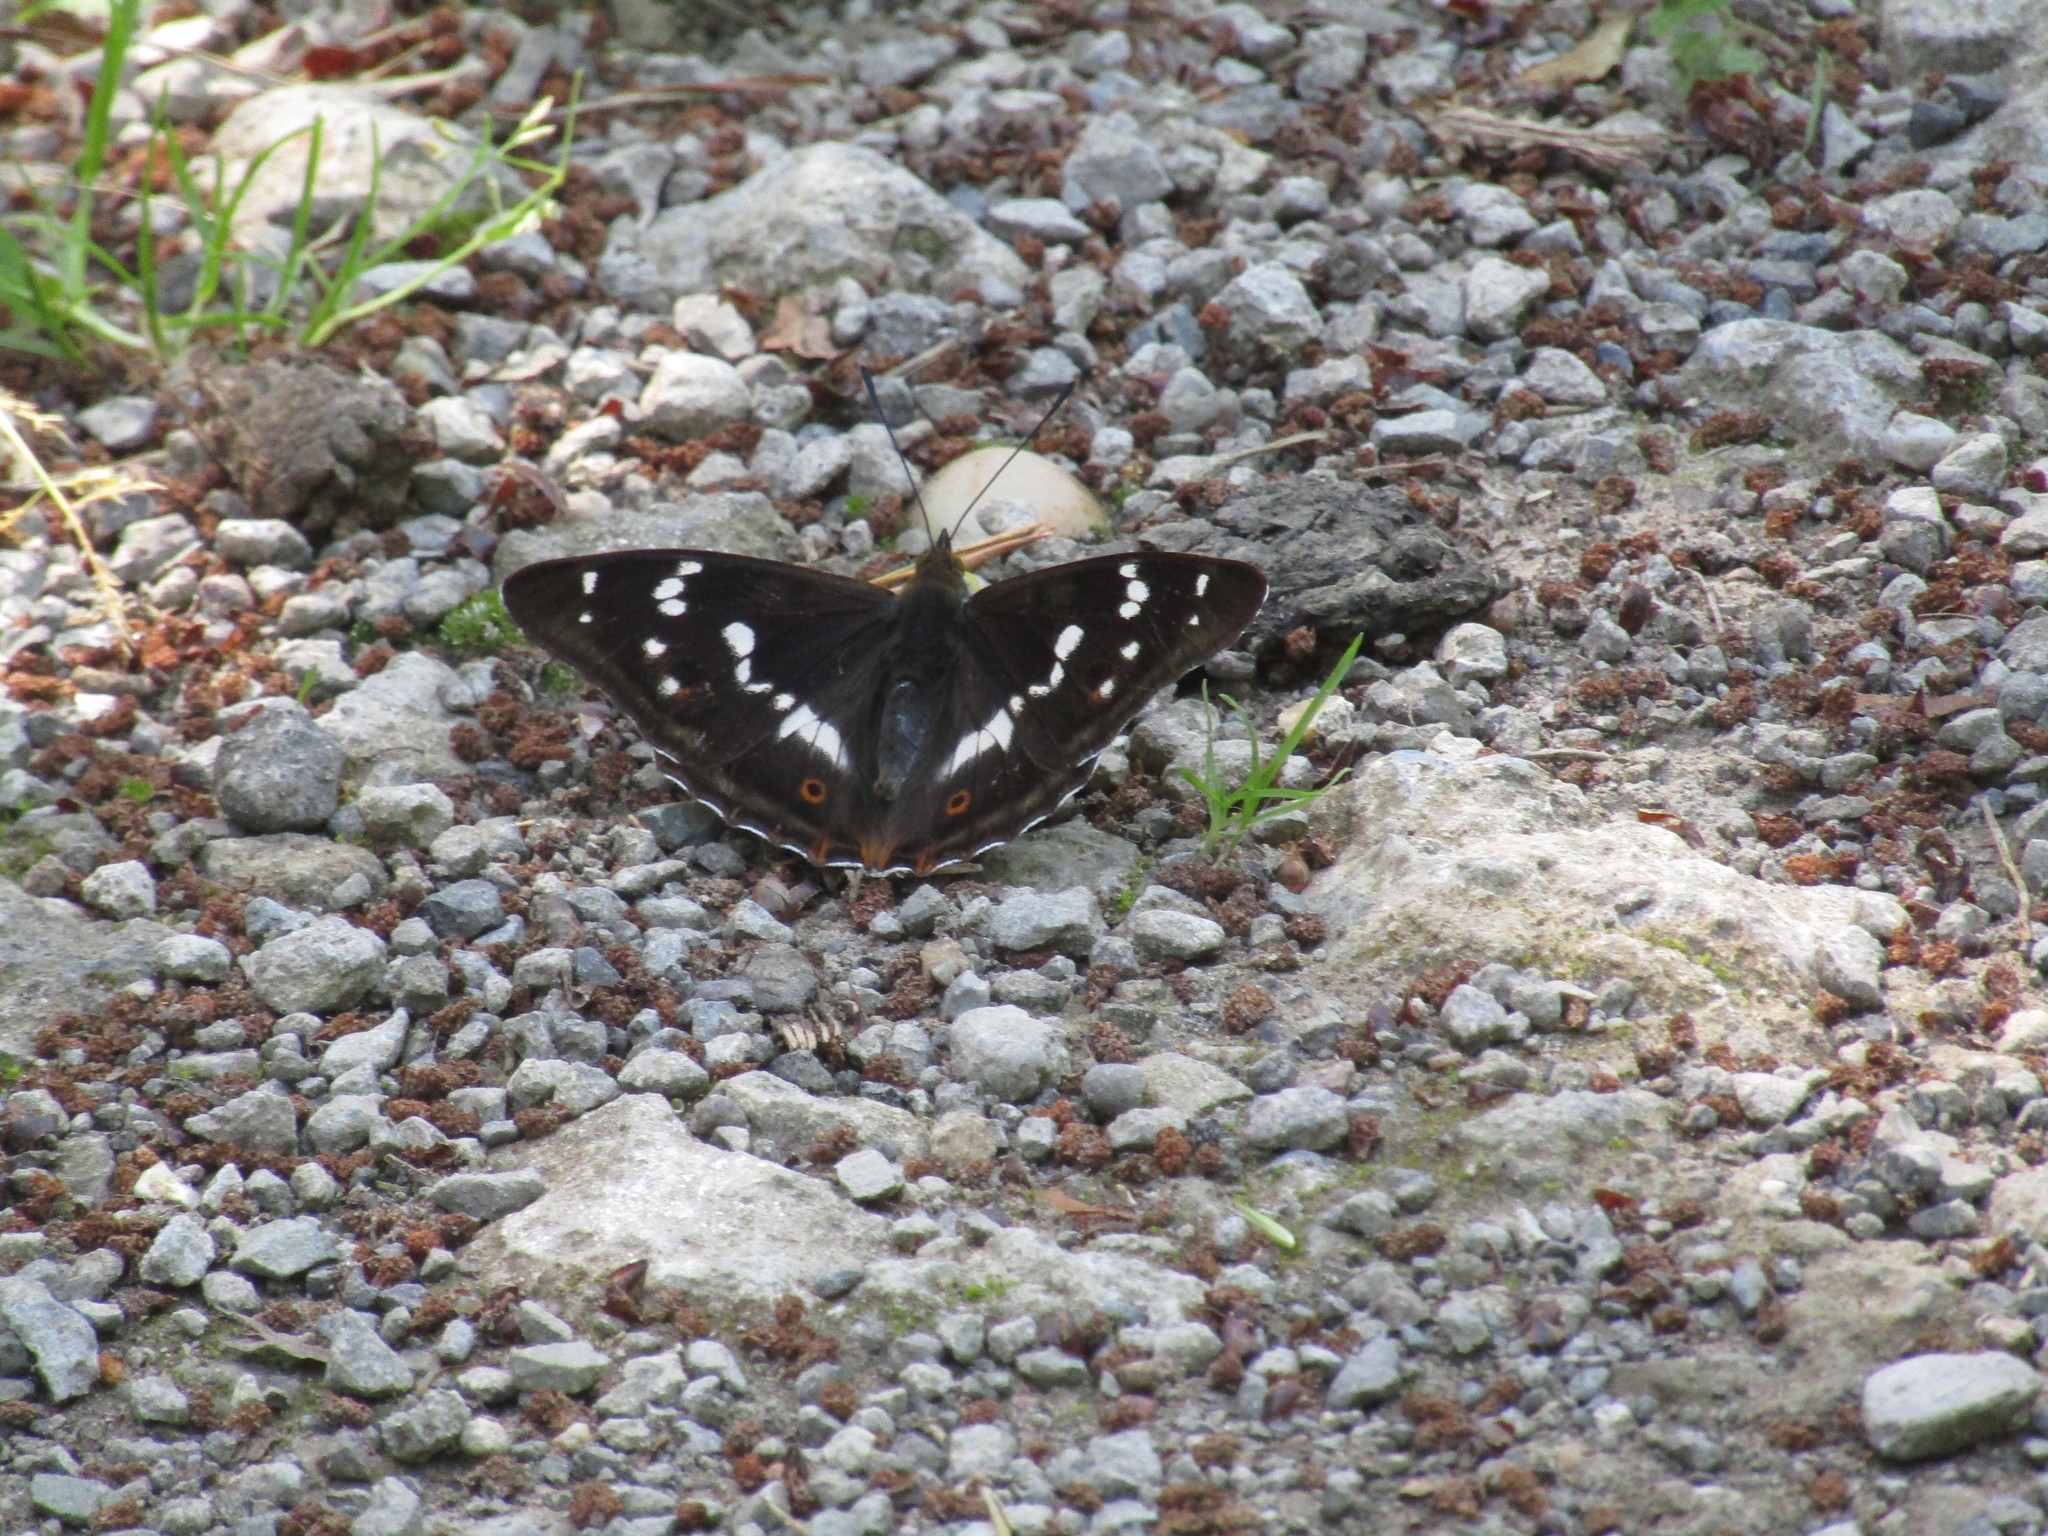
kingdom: Animalia
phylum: Arthropoda
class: Insecta
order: Lepidoptera
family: Nymphalidae
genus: Apatura
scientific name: Apatura iris
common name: Purple emperor
